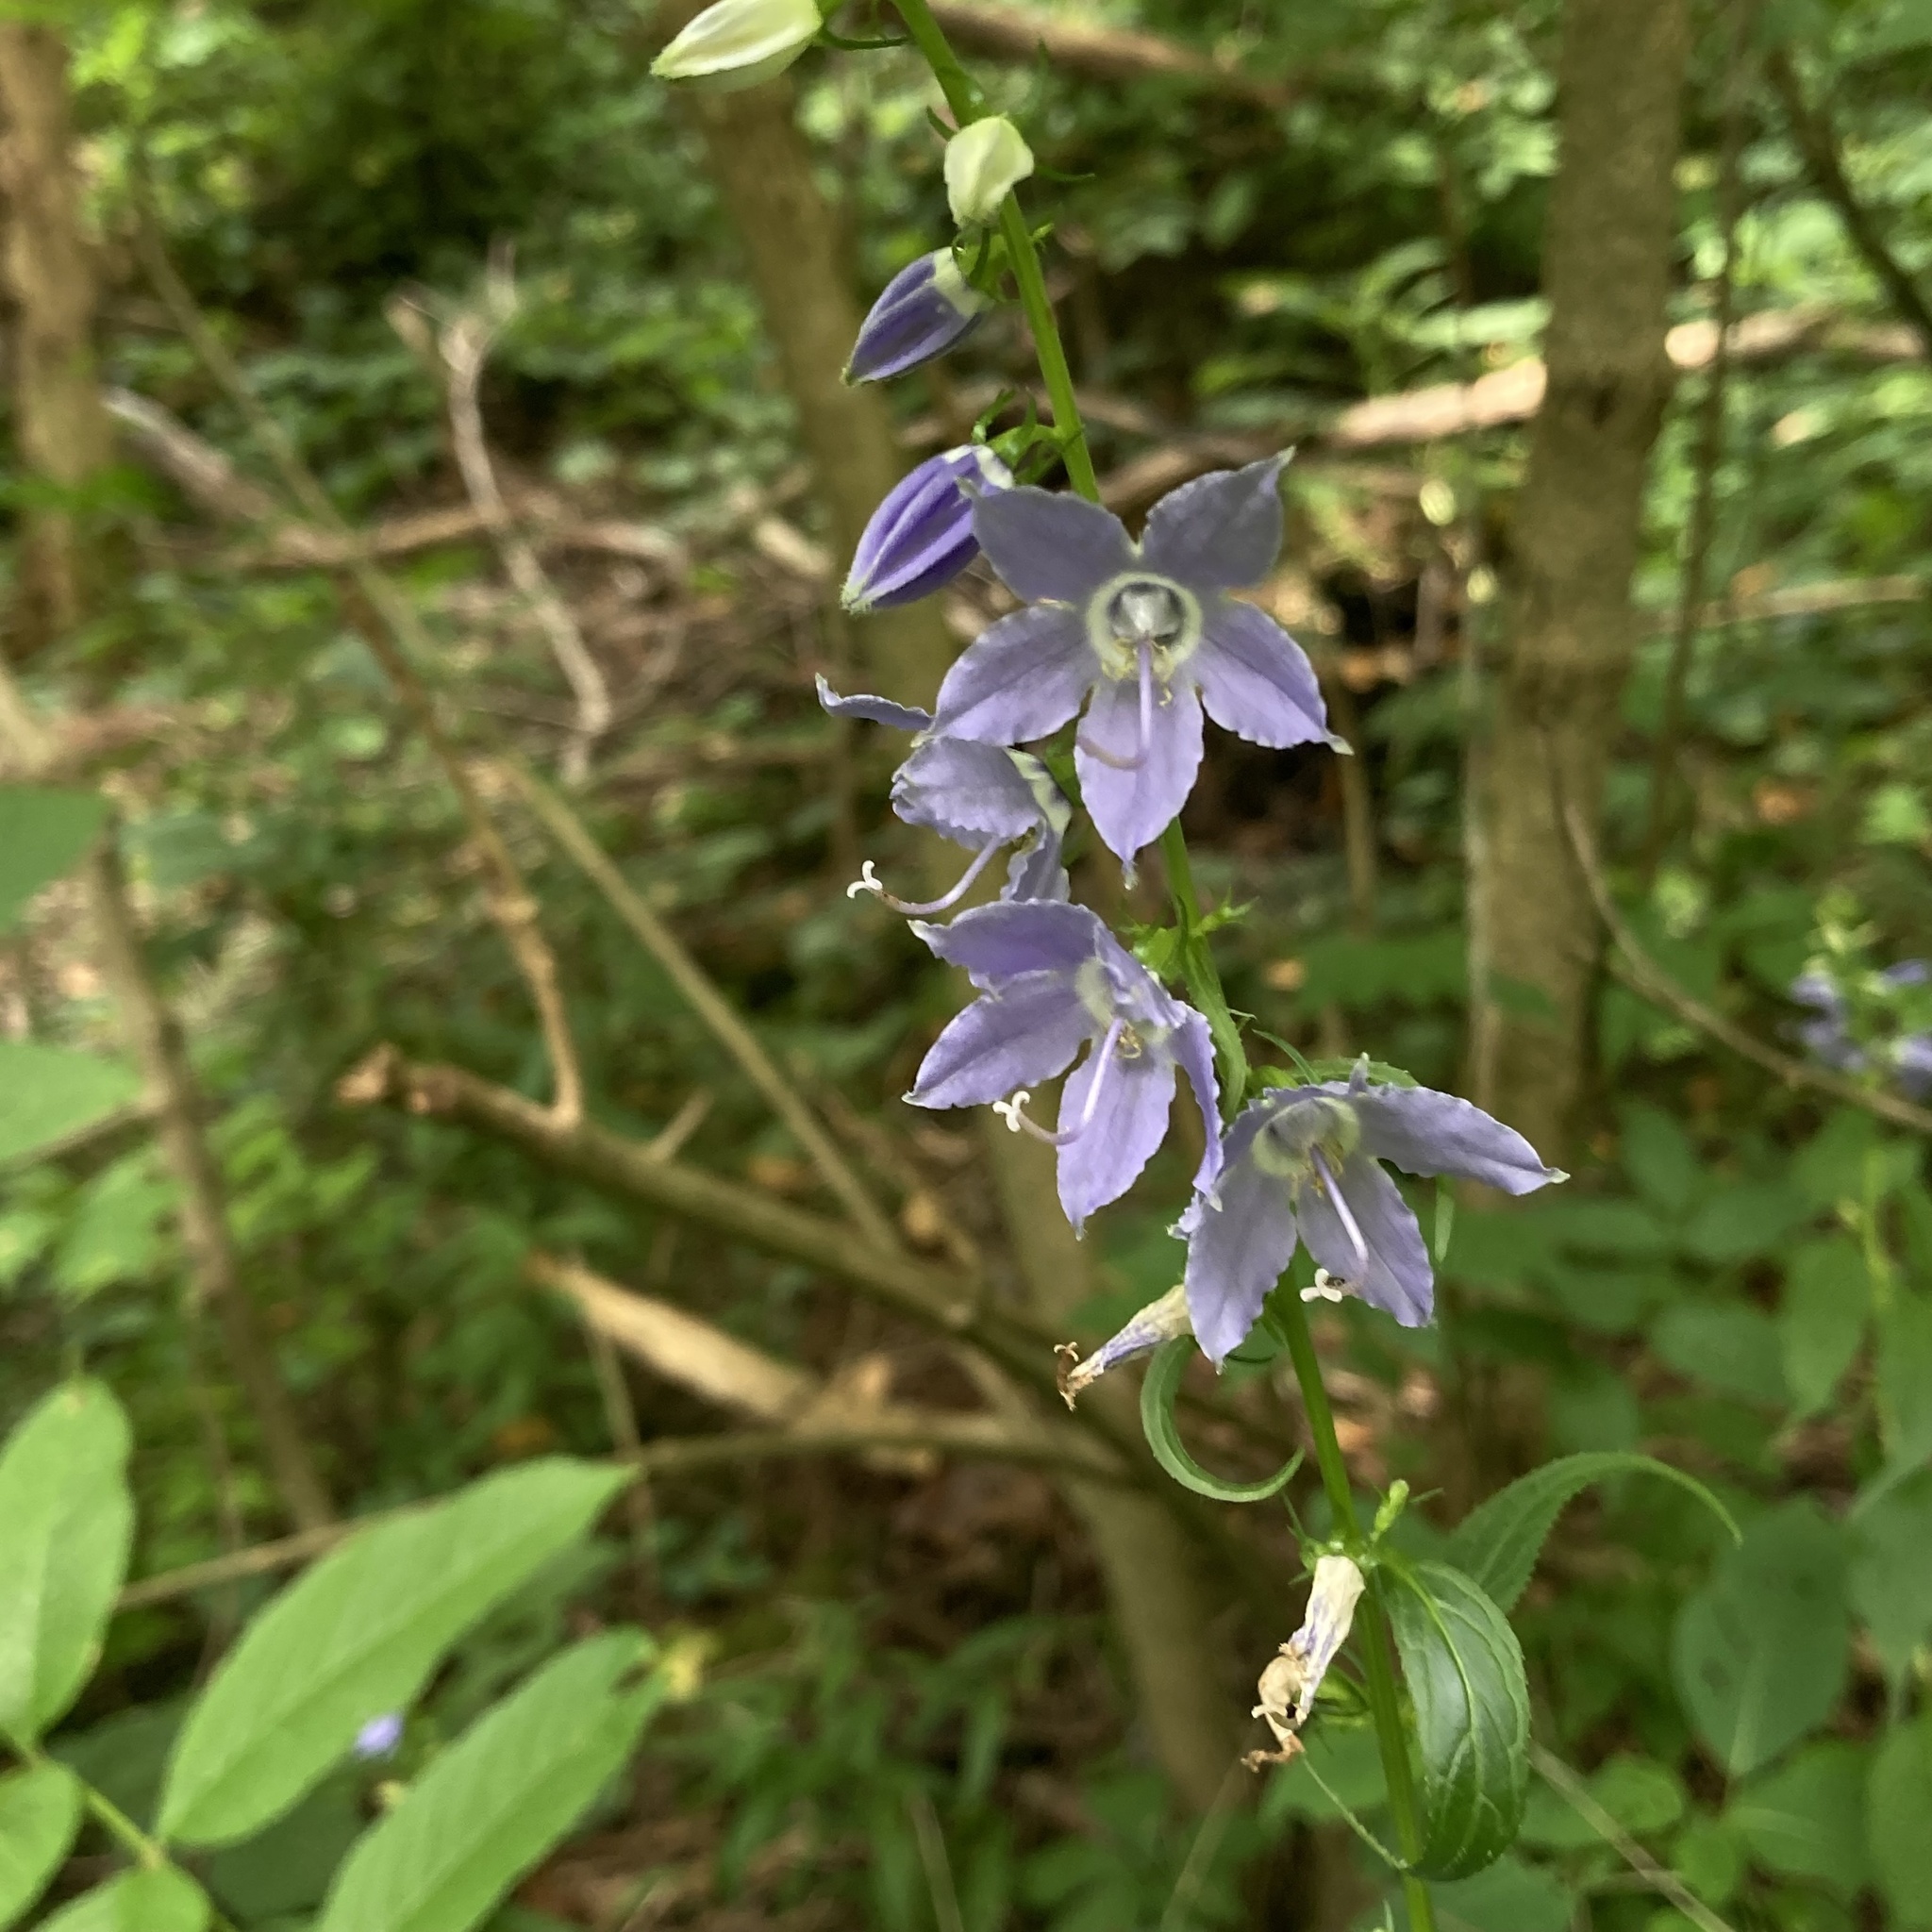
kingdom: Plantae
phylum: Tracheophyta
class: Magnoliopsida
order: Asterales
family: Campanulaceae
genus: Campanulastrum
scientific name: Campanulastrum americanum
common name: American bellflower
